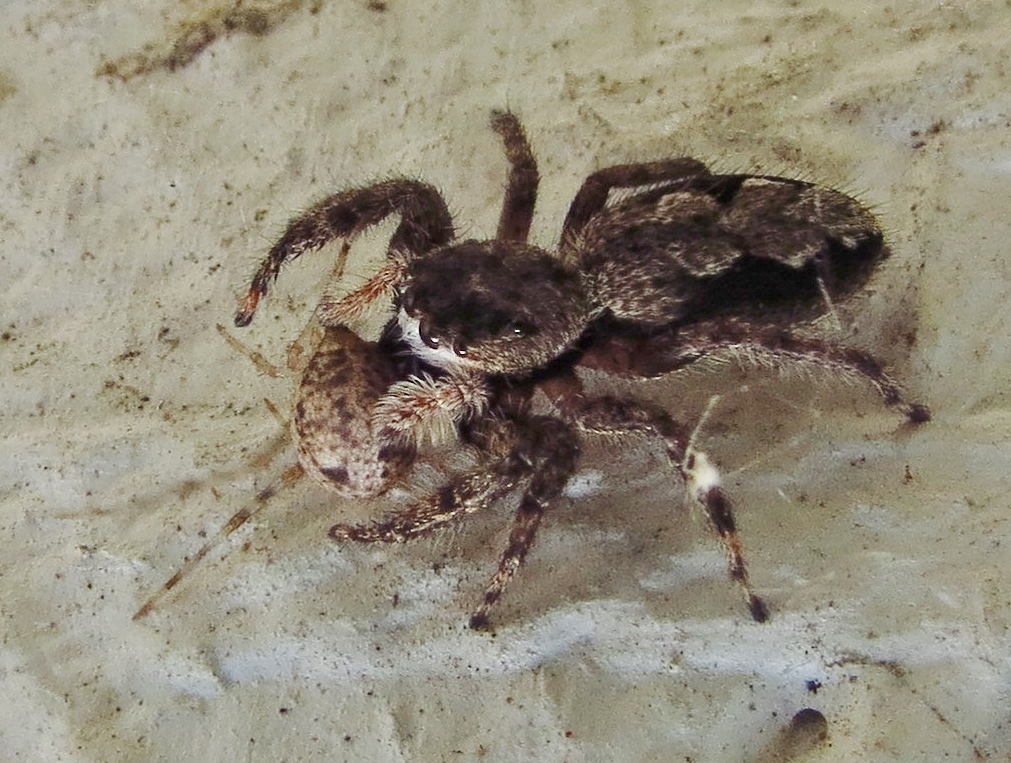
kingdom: Animalia
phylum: Arthropoda
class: Arachnida
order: Araneae
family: Salticidae
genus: Platycryptus
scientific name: Platycryptus undatus
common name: Tan jumping spider
